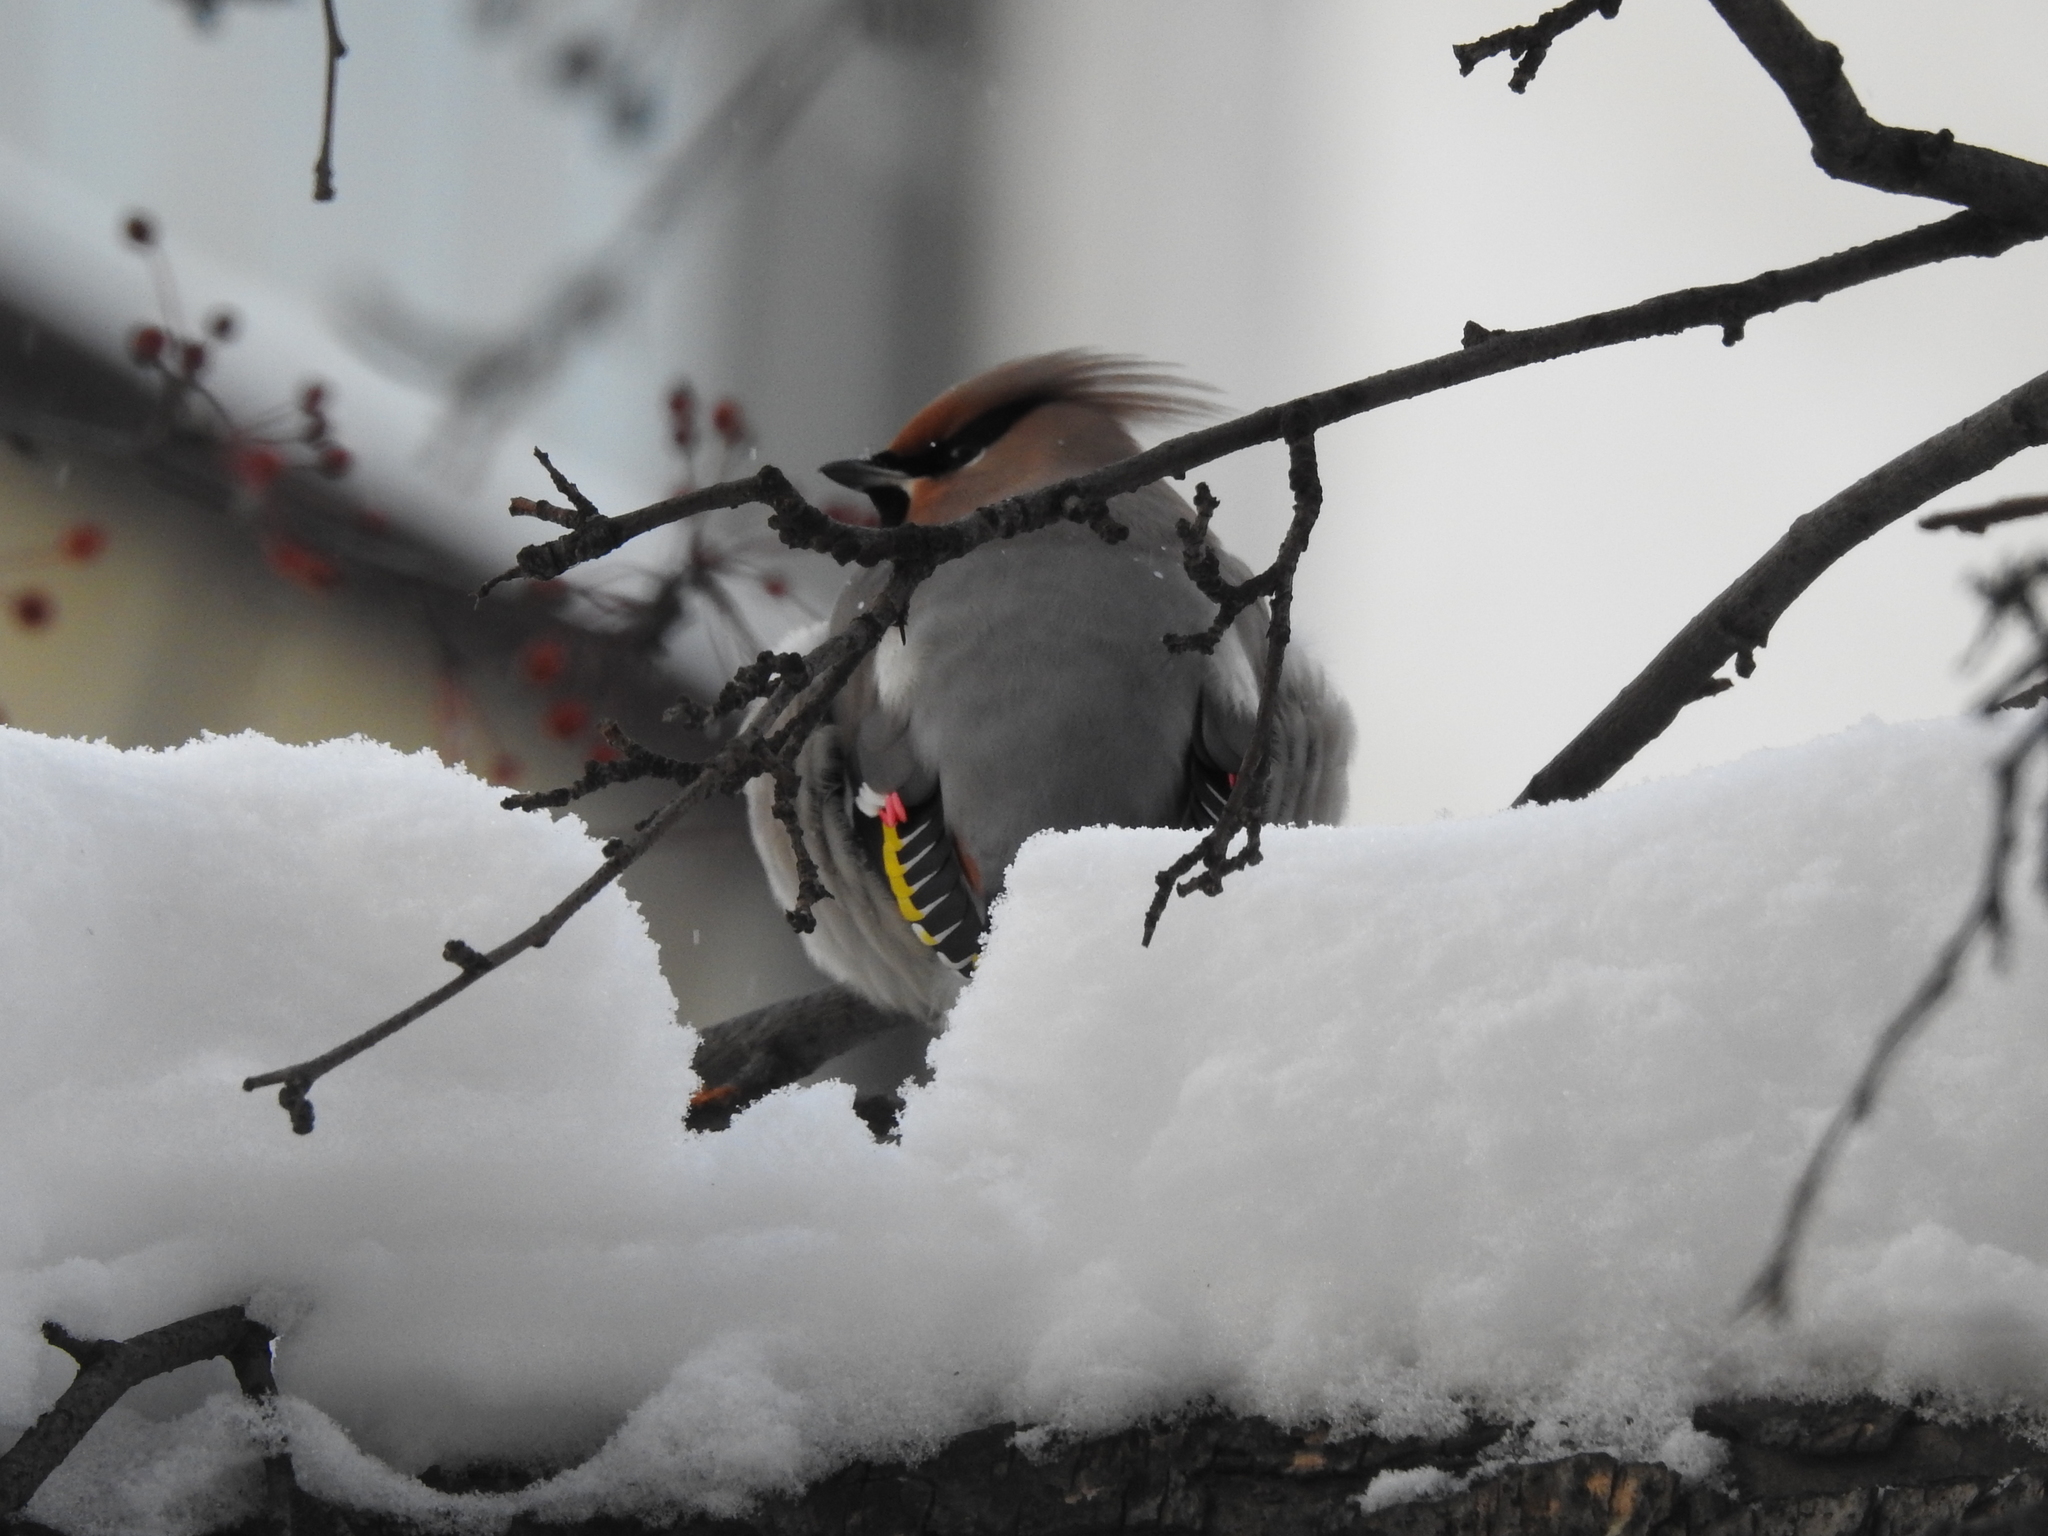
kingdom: Animalia
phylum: Chordata
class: Aves
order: Passeriformes
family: Bombycillidae
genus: Bombycilla
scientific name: Bombycilla garrulus
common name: Bohemian waxwing
